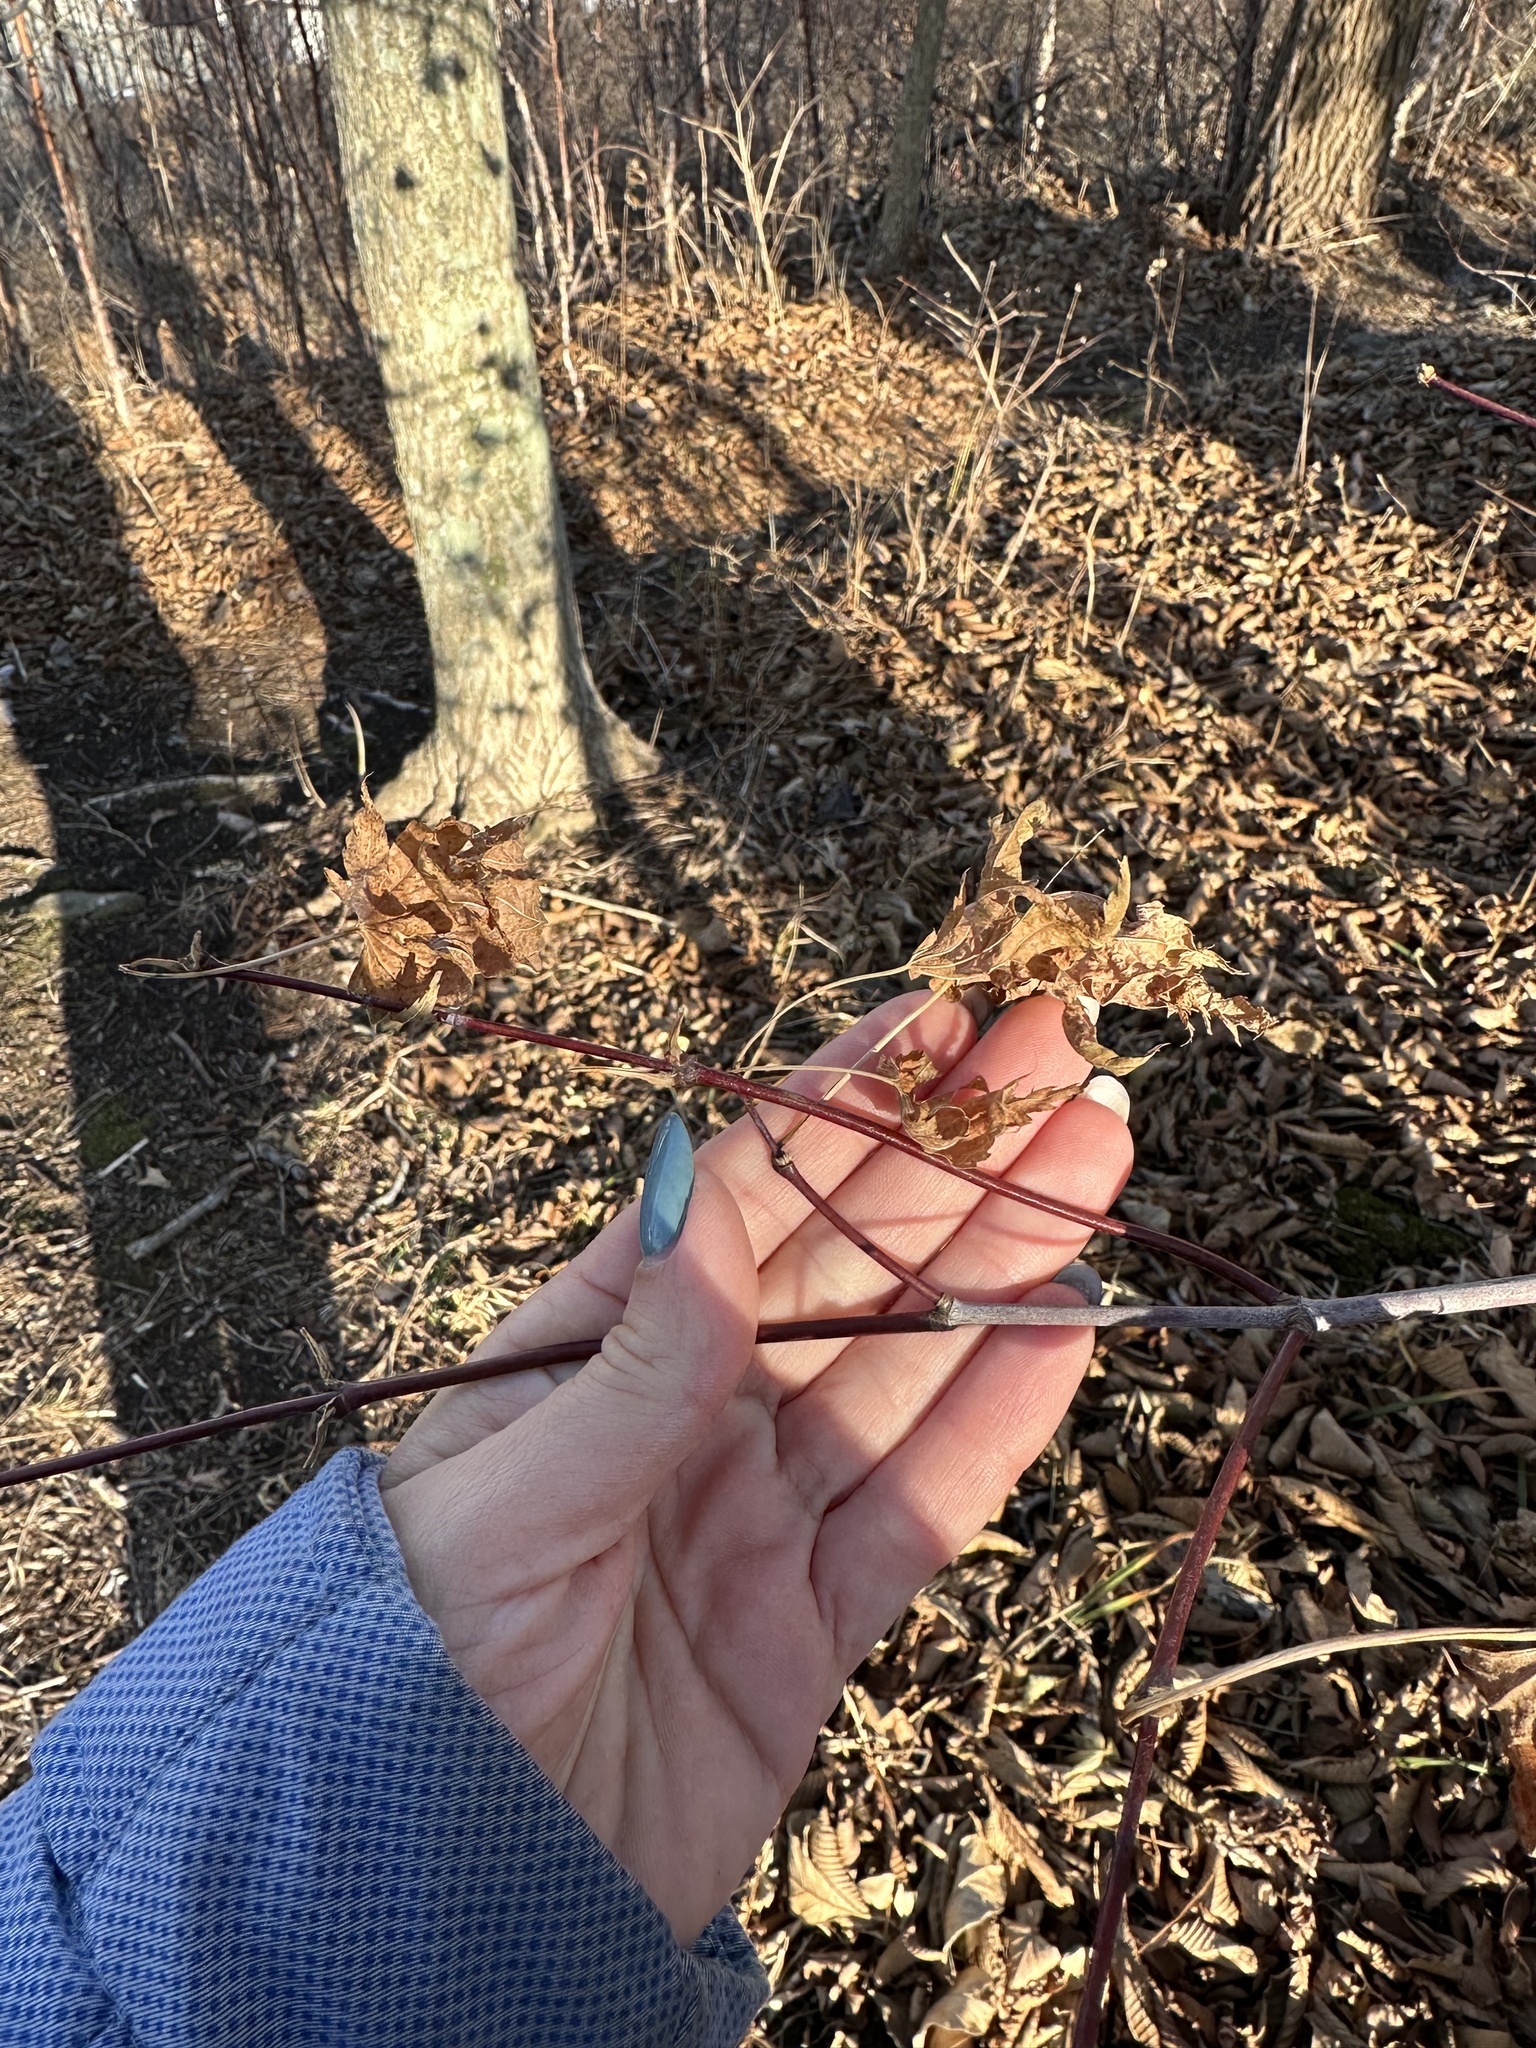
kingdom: Plantae
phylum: Tracheophyta
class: Magnoliopsida
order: Sapindales
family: Sapindaceae
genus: Acer
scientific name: Acer pseudosieboldianum
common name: Korean maple
